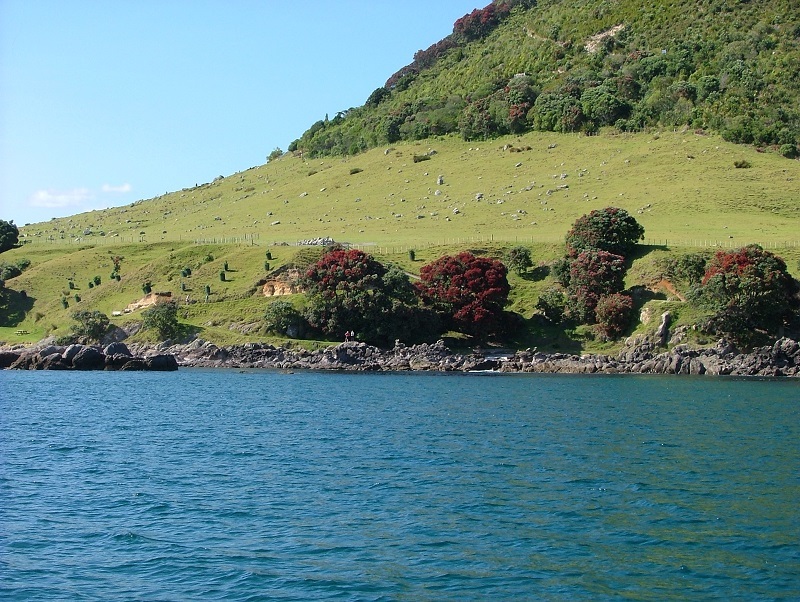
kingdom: Plantae
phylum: Tracheophyta
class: Magnoliopsida
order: Myrtales
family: Myrtaceae
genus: Metrosideros
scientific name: Metrosideros excelsa
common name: New zealand christmastree
